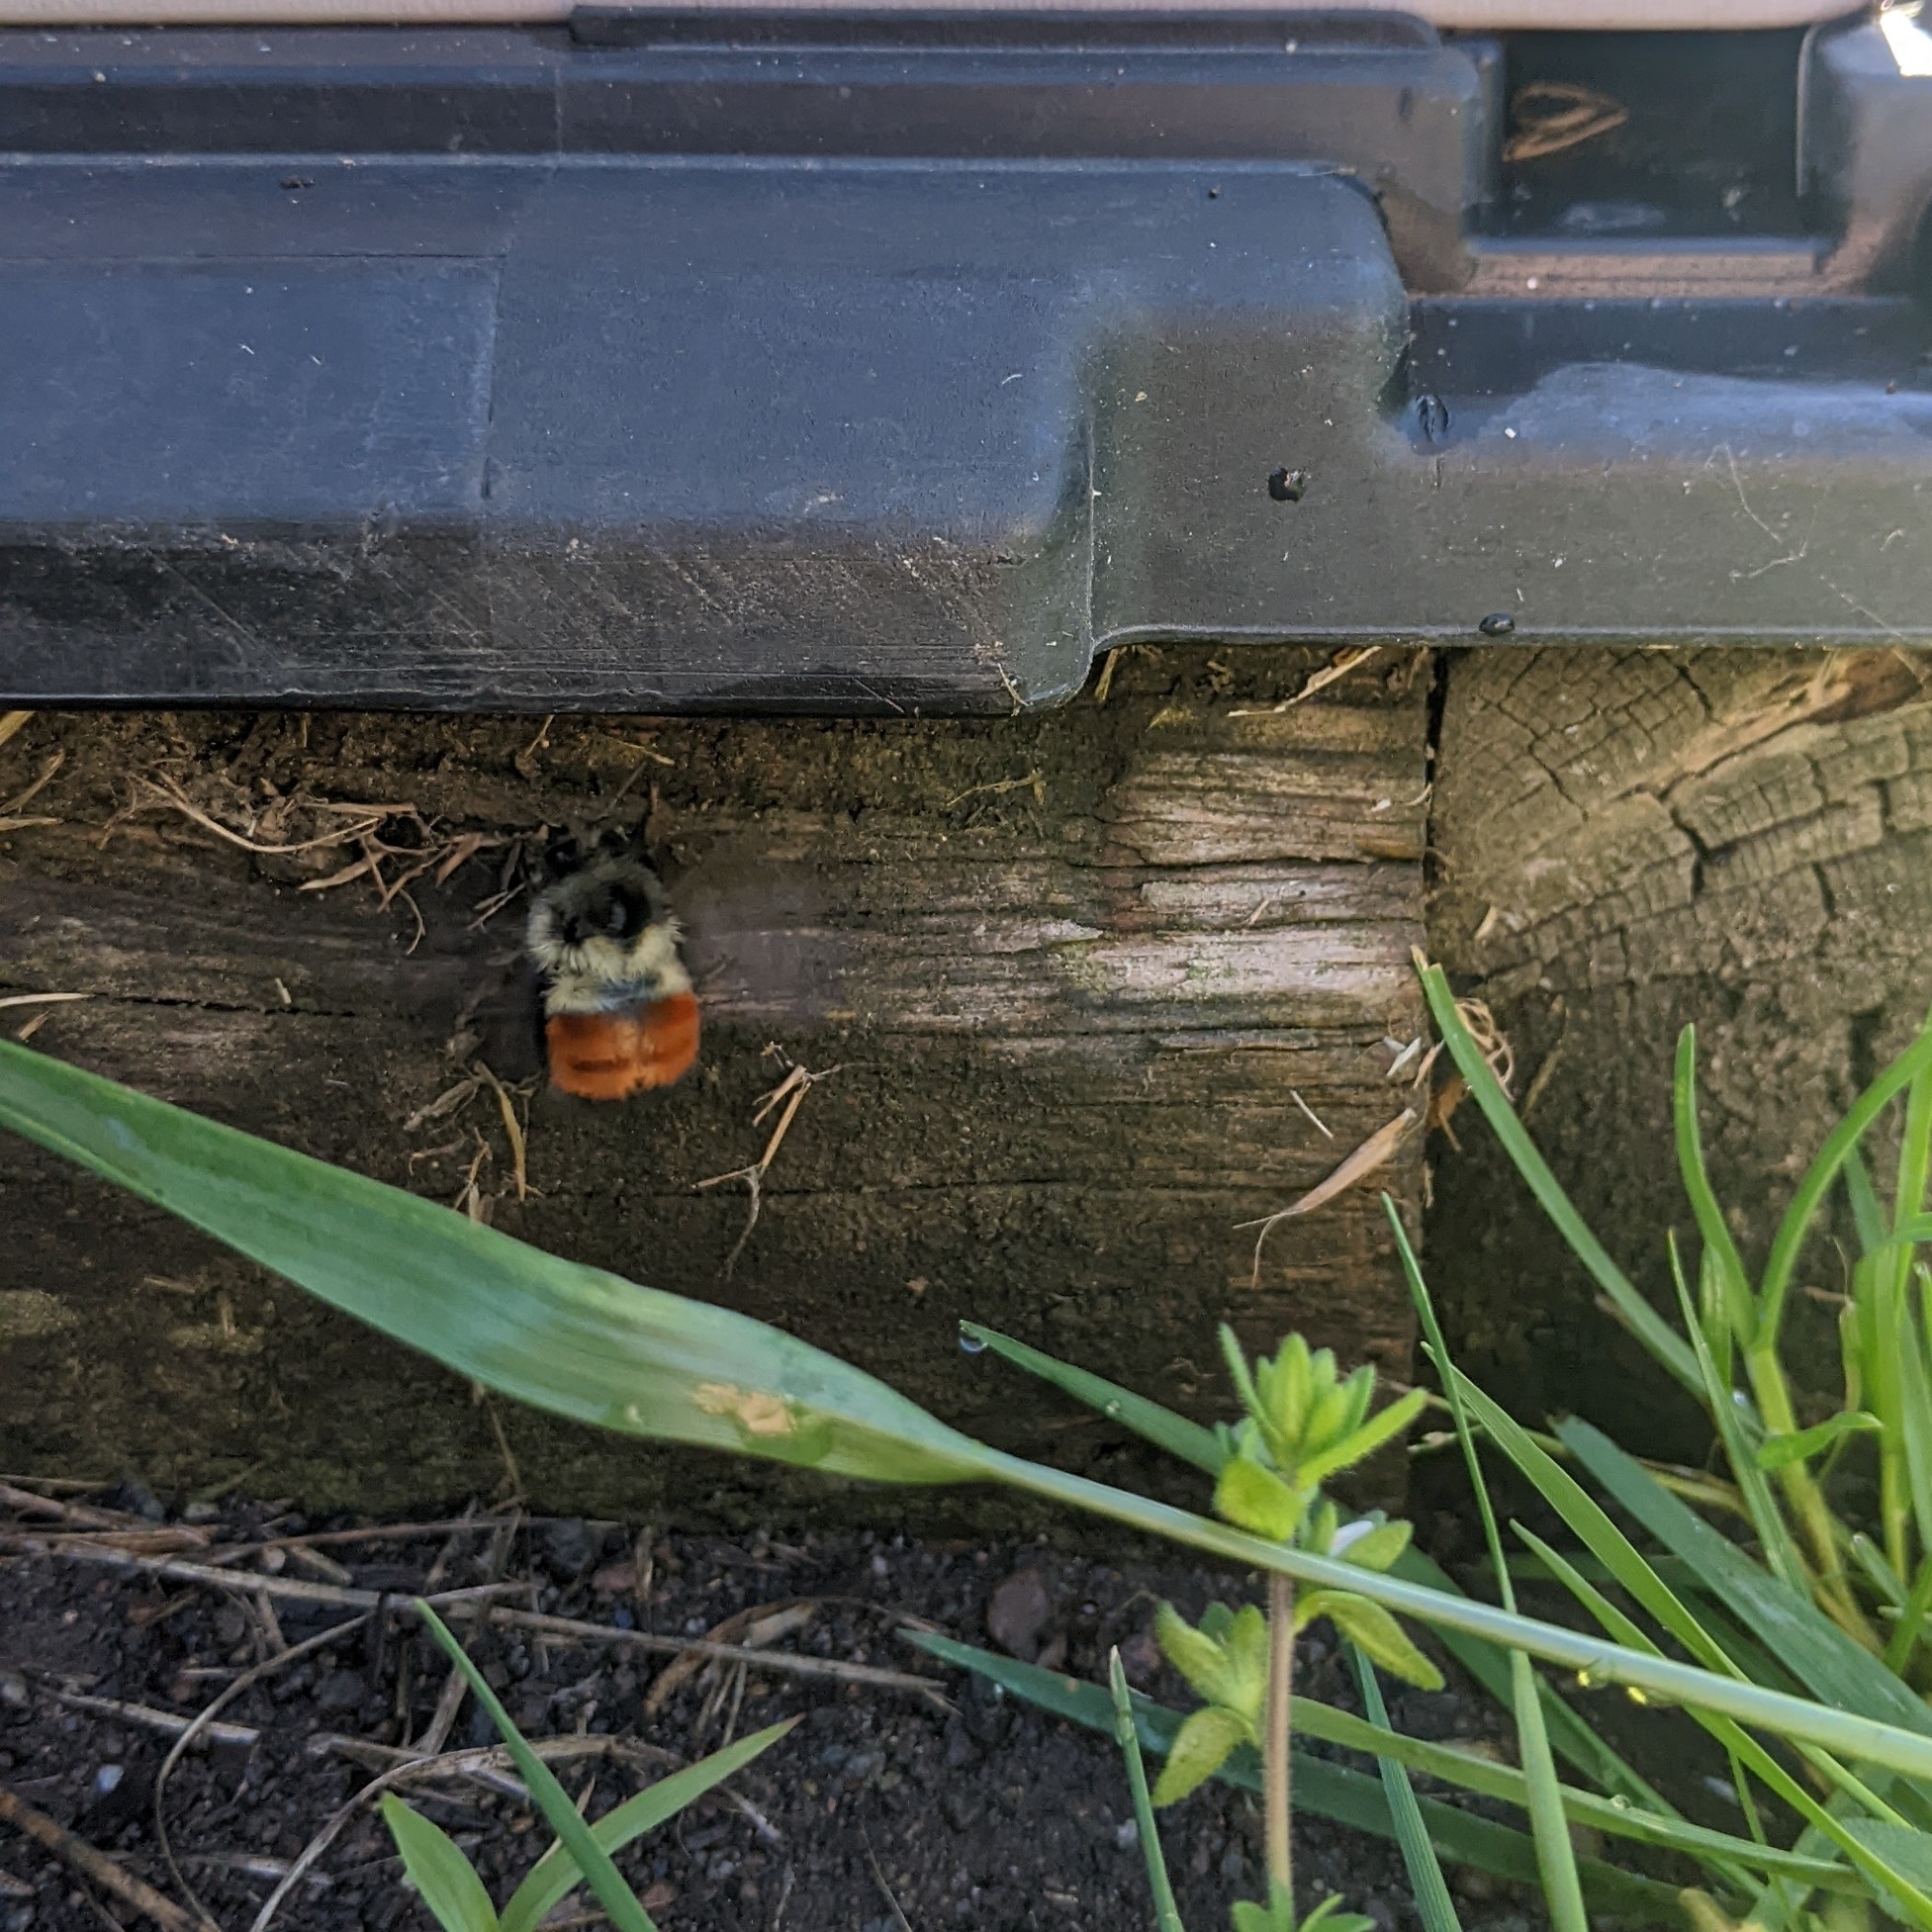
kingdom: Animalia
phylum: Arthropoda
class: Insecta
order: Hymenoptera
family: Apidae
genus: Bombus
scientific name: Bombus melanopygus
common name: Black tail bumble bee
